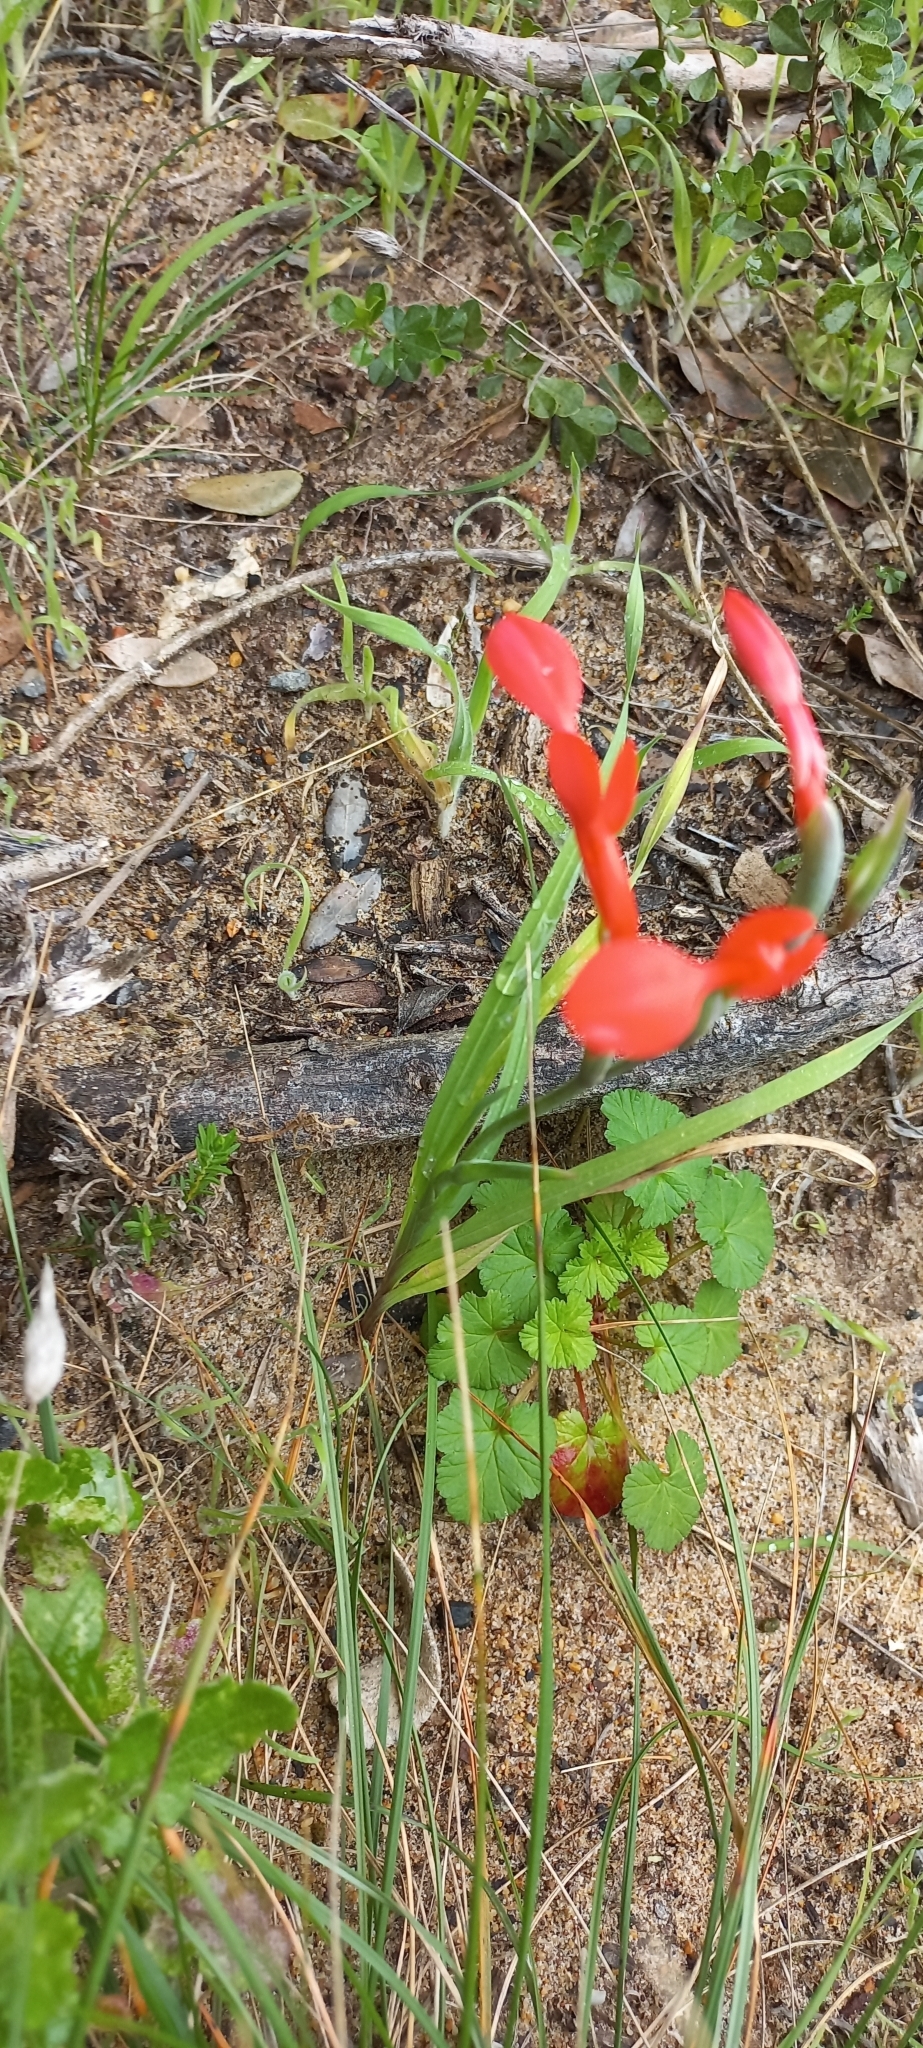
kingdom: Plantae
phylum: Tracheophyta
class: Liliopsida
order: Asparagales
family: Iridaceae
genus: Gladiolus
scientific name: Gladiolus cunonius
